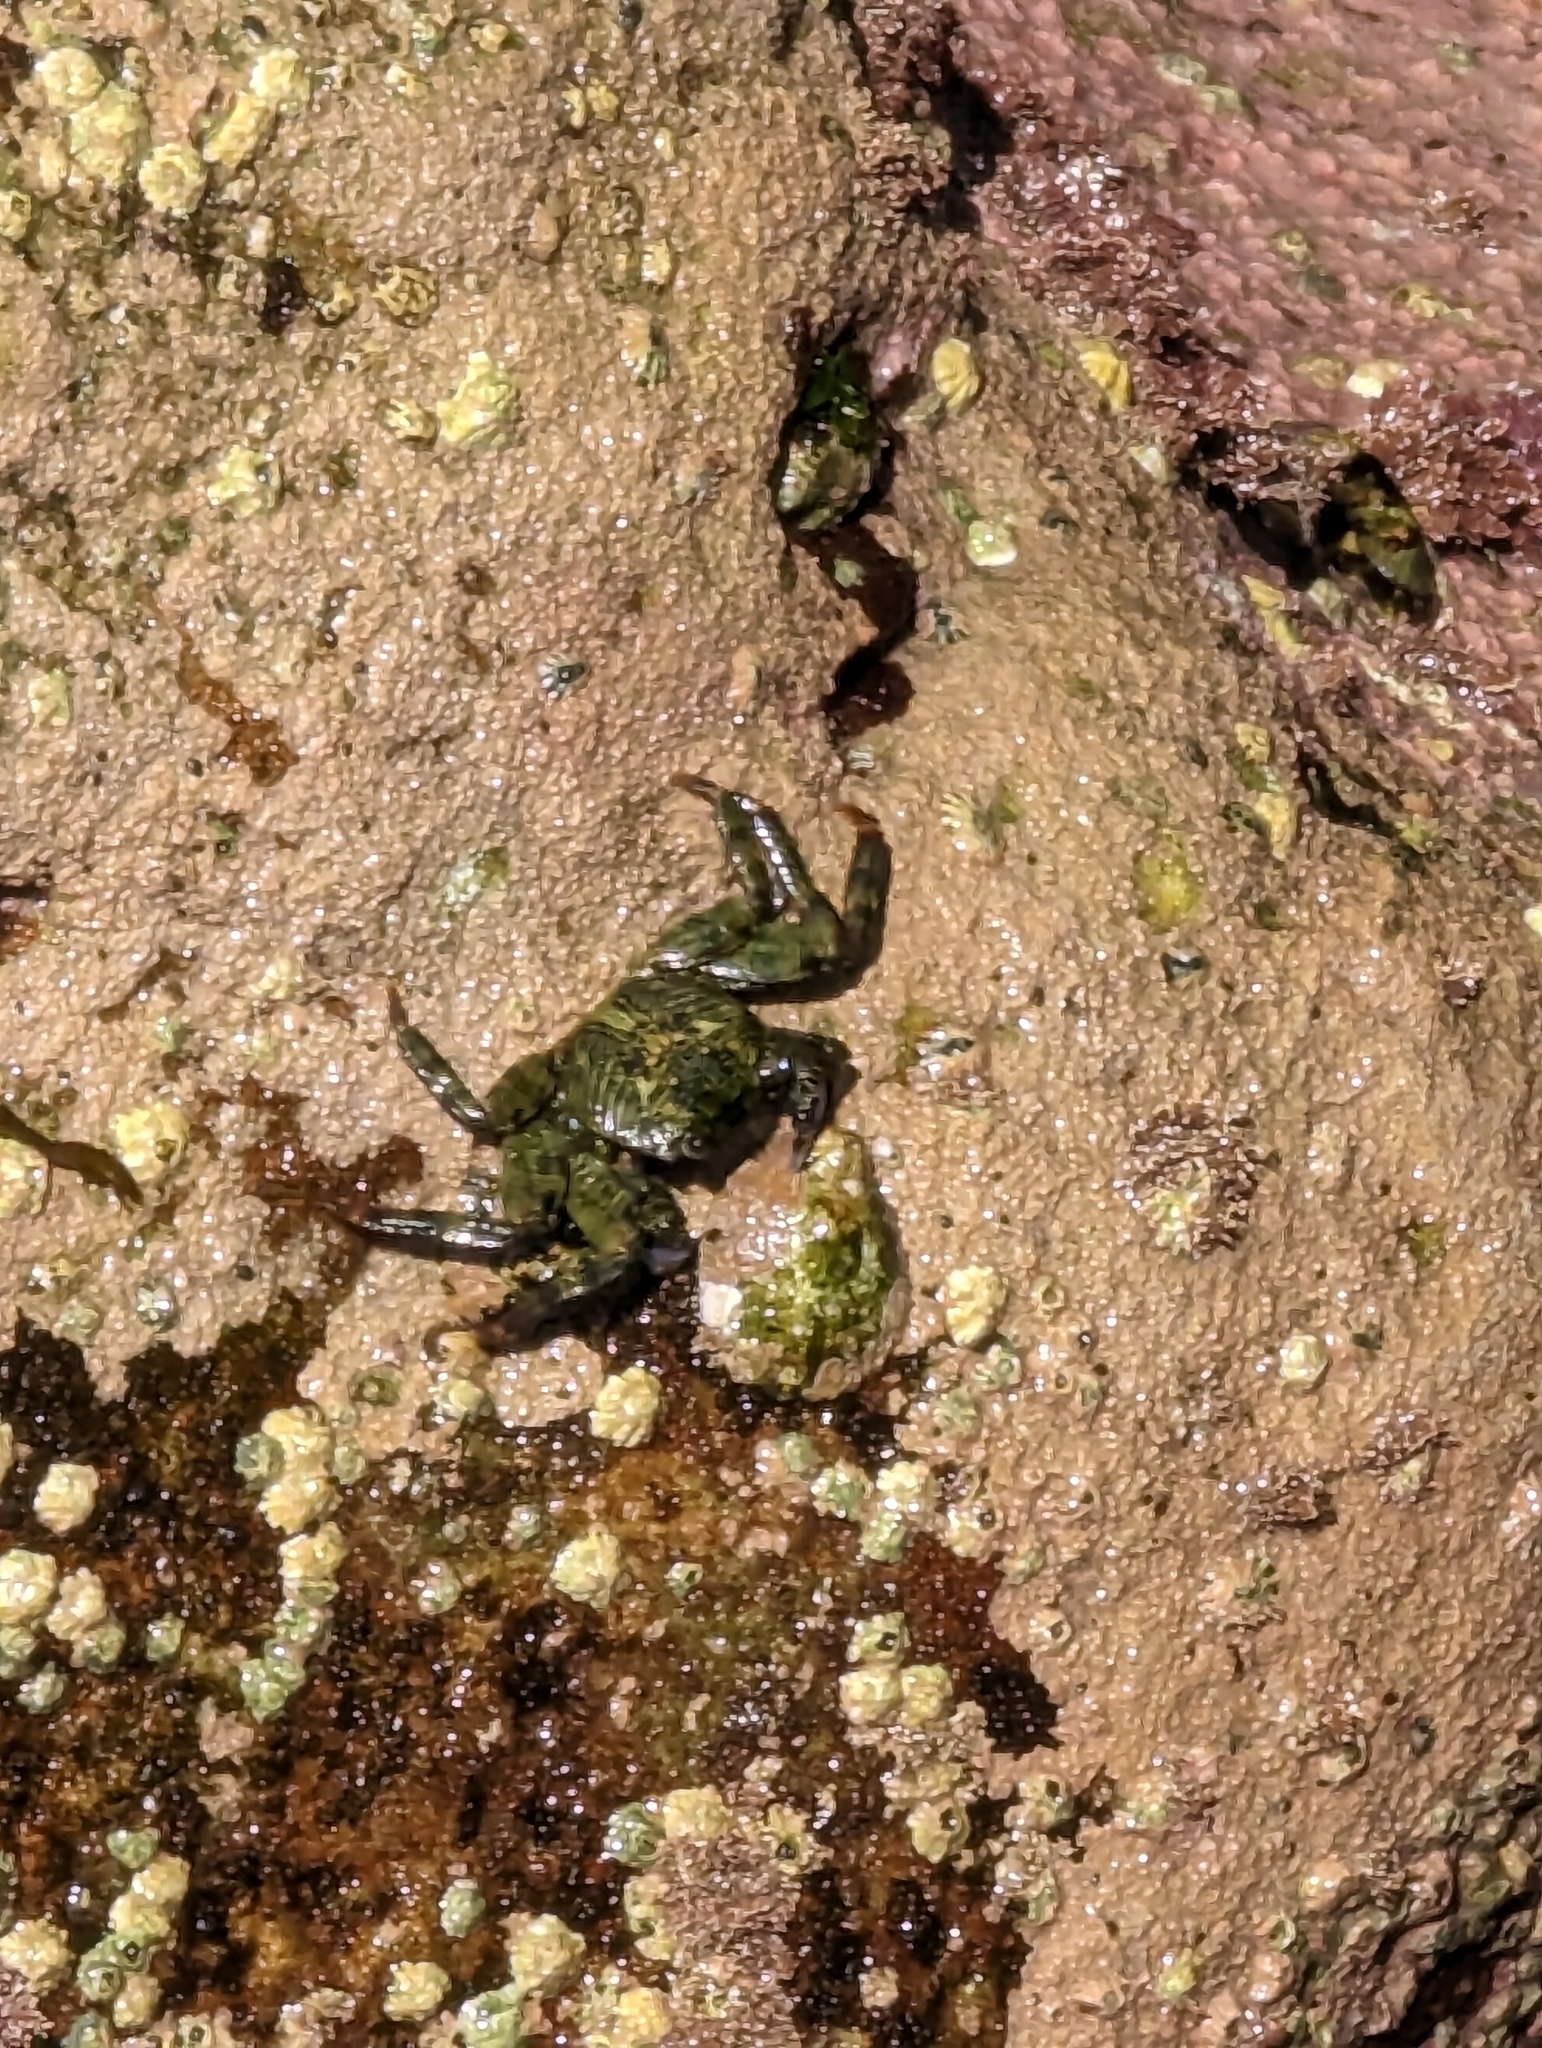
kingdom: Animalia
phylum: Arthropoda
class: Malacostraca
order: Decapoda
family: Grapsidae
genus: Leptograpsus
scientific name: Leptograpsus variegatus
